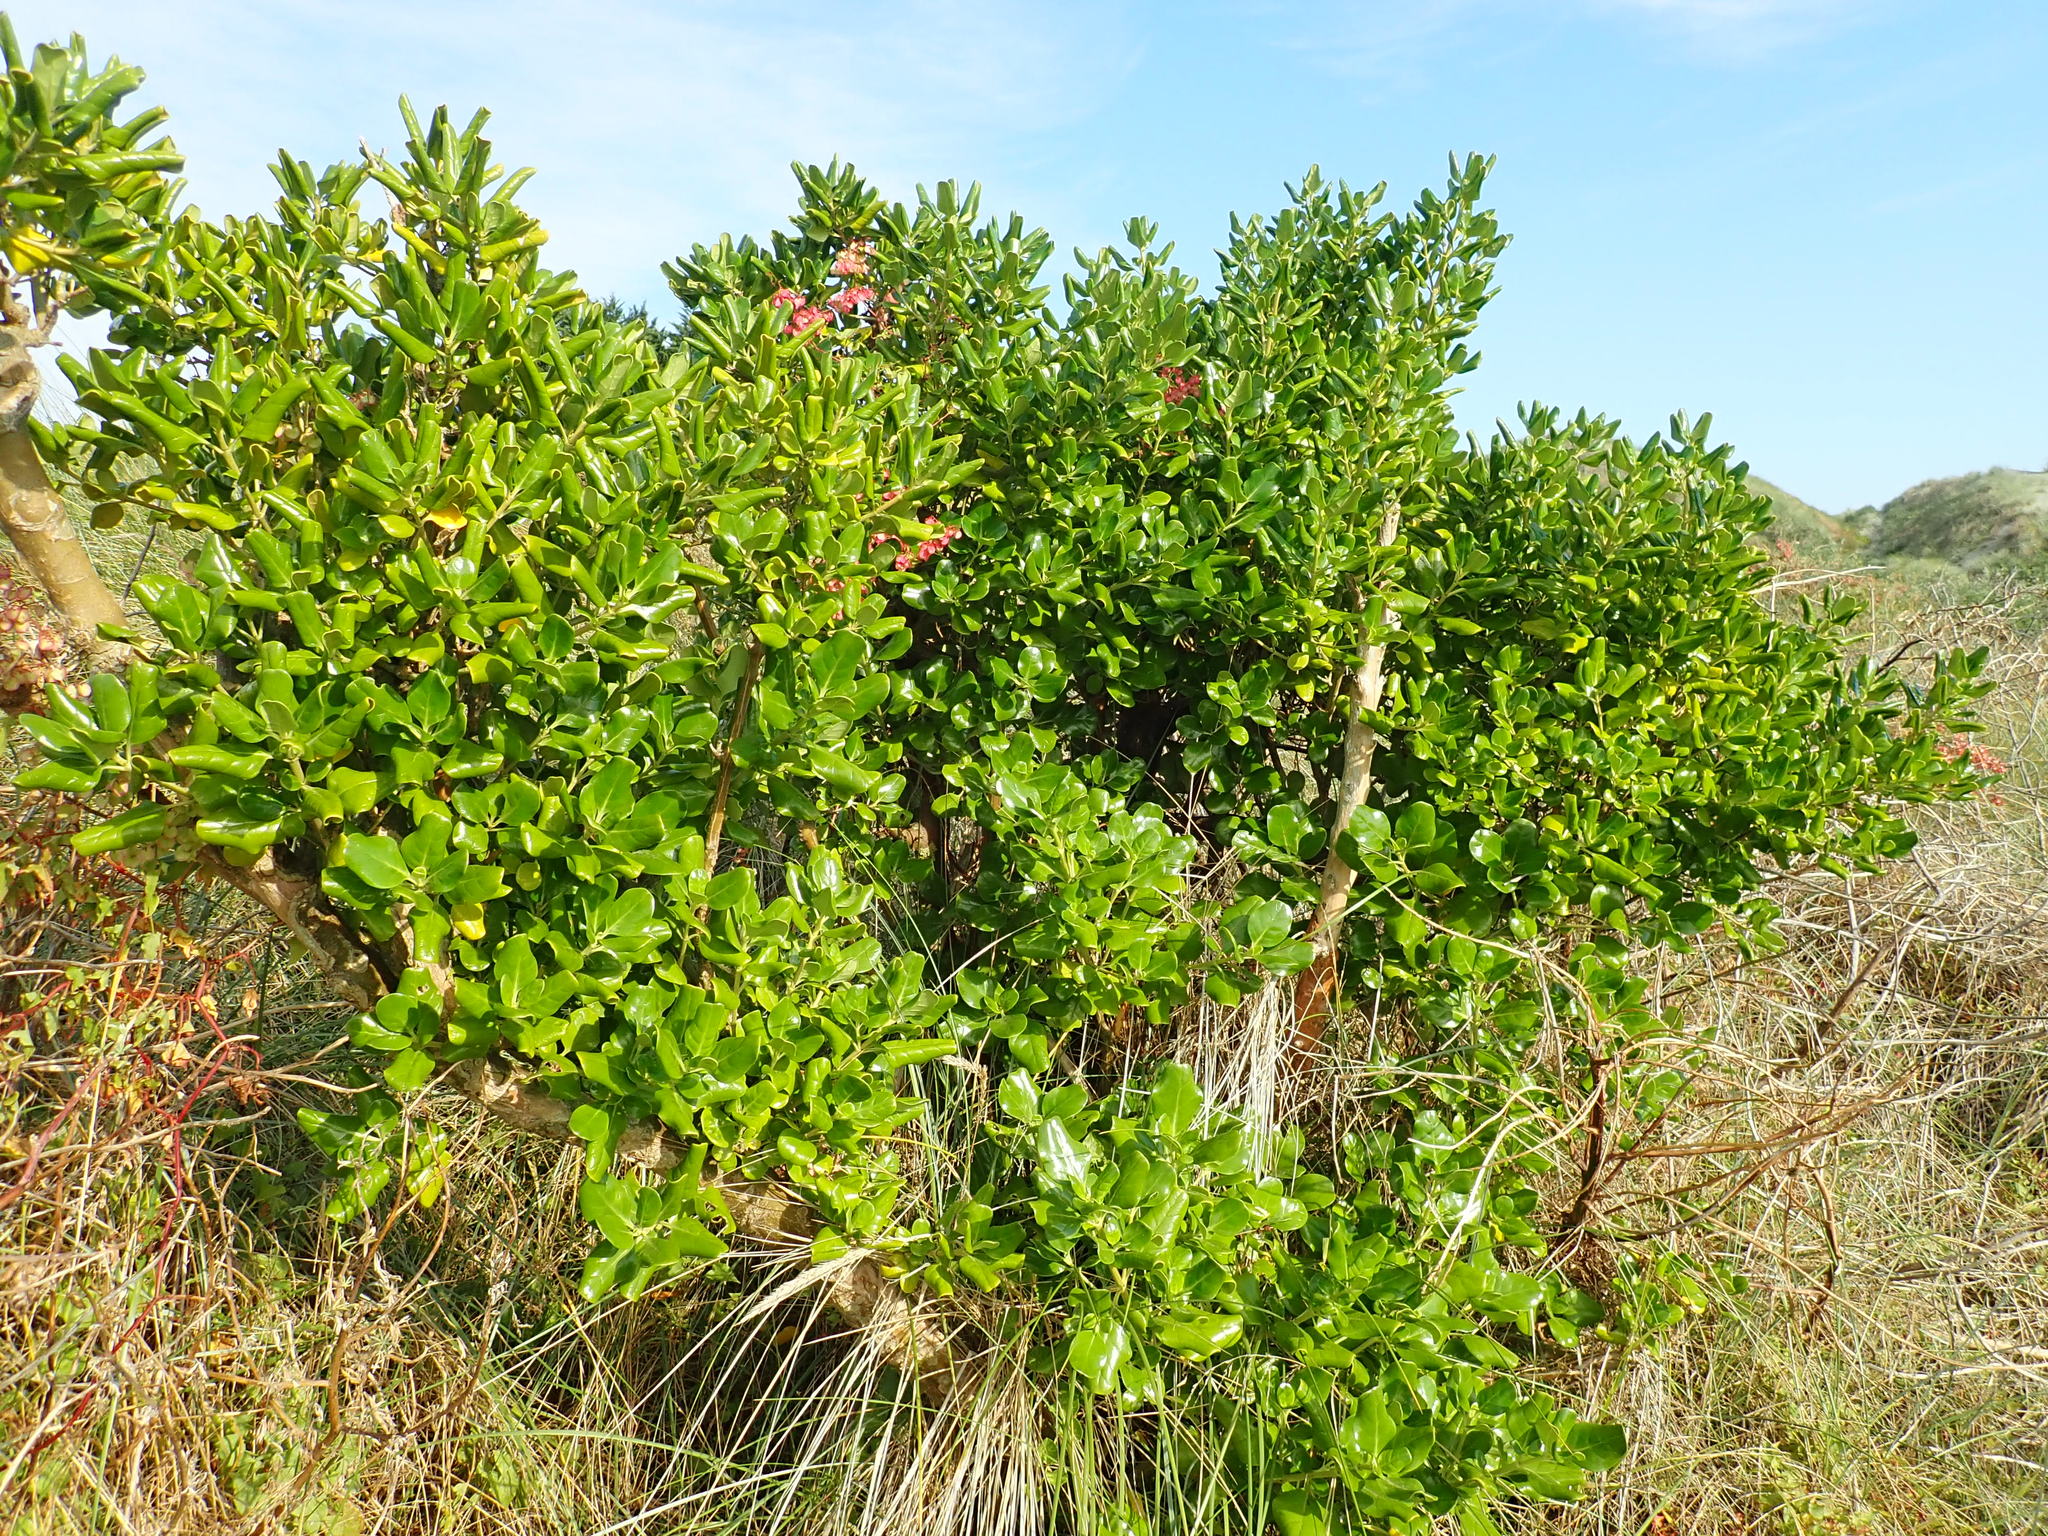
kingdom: Plantae
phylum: Tracheophyta
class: Magnoliopsida
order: Gentianales
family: Rubiaceae
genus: Coprosma
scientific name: Coprosma repens
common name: Tree bedstraw
